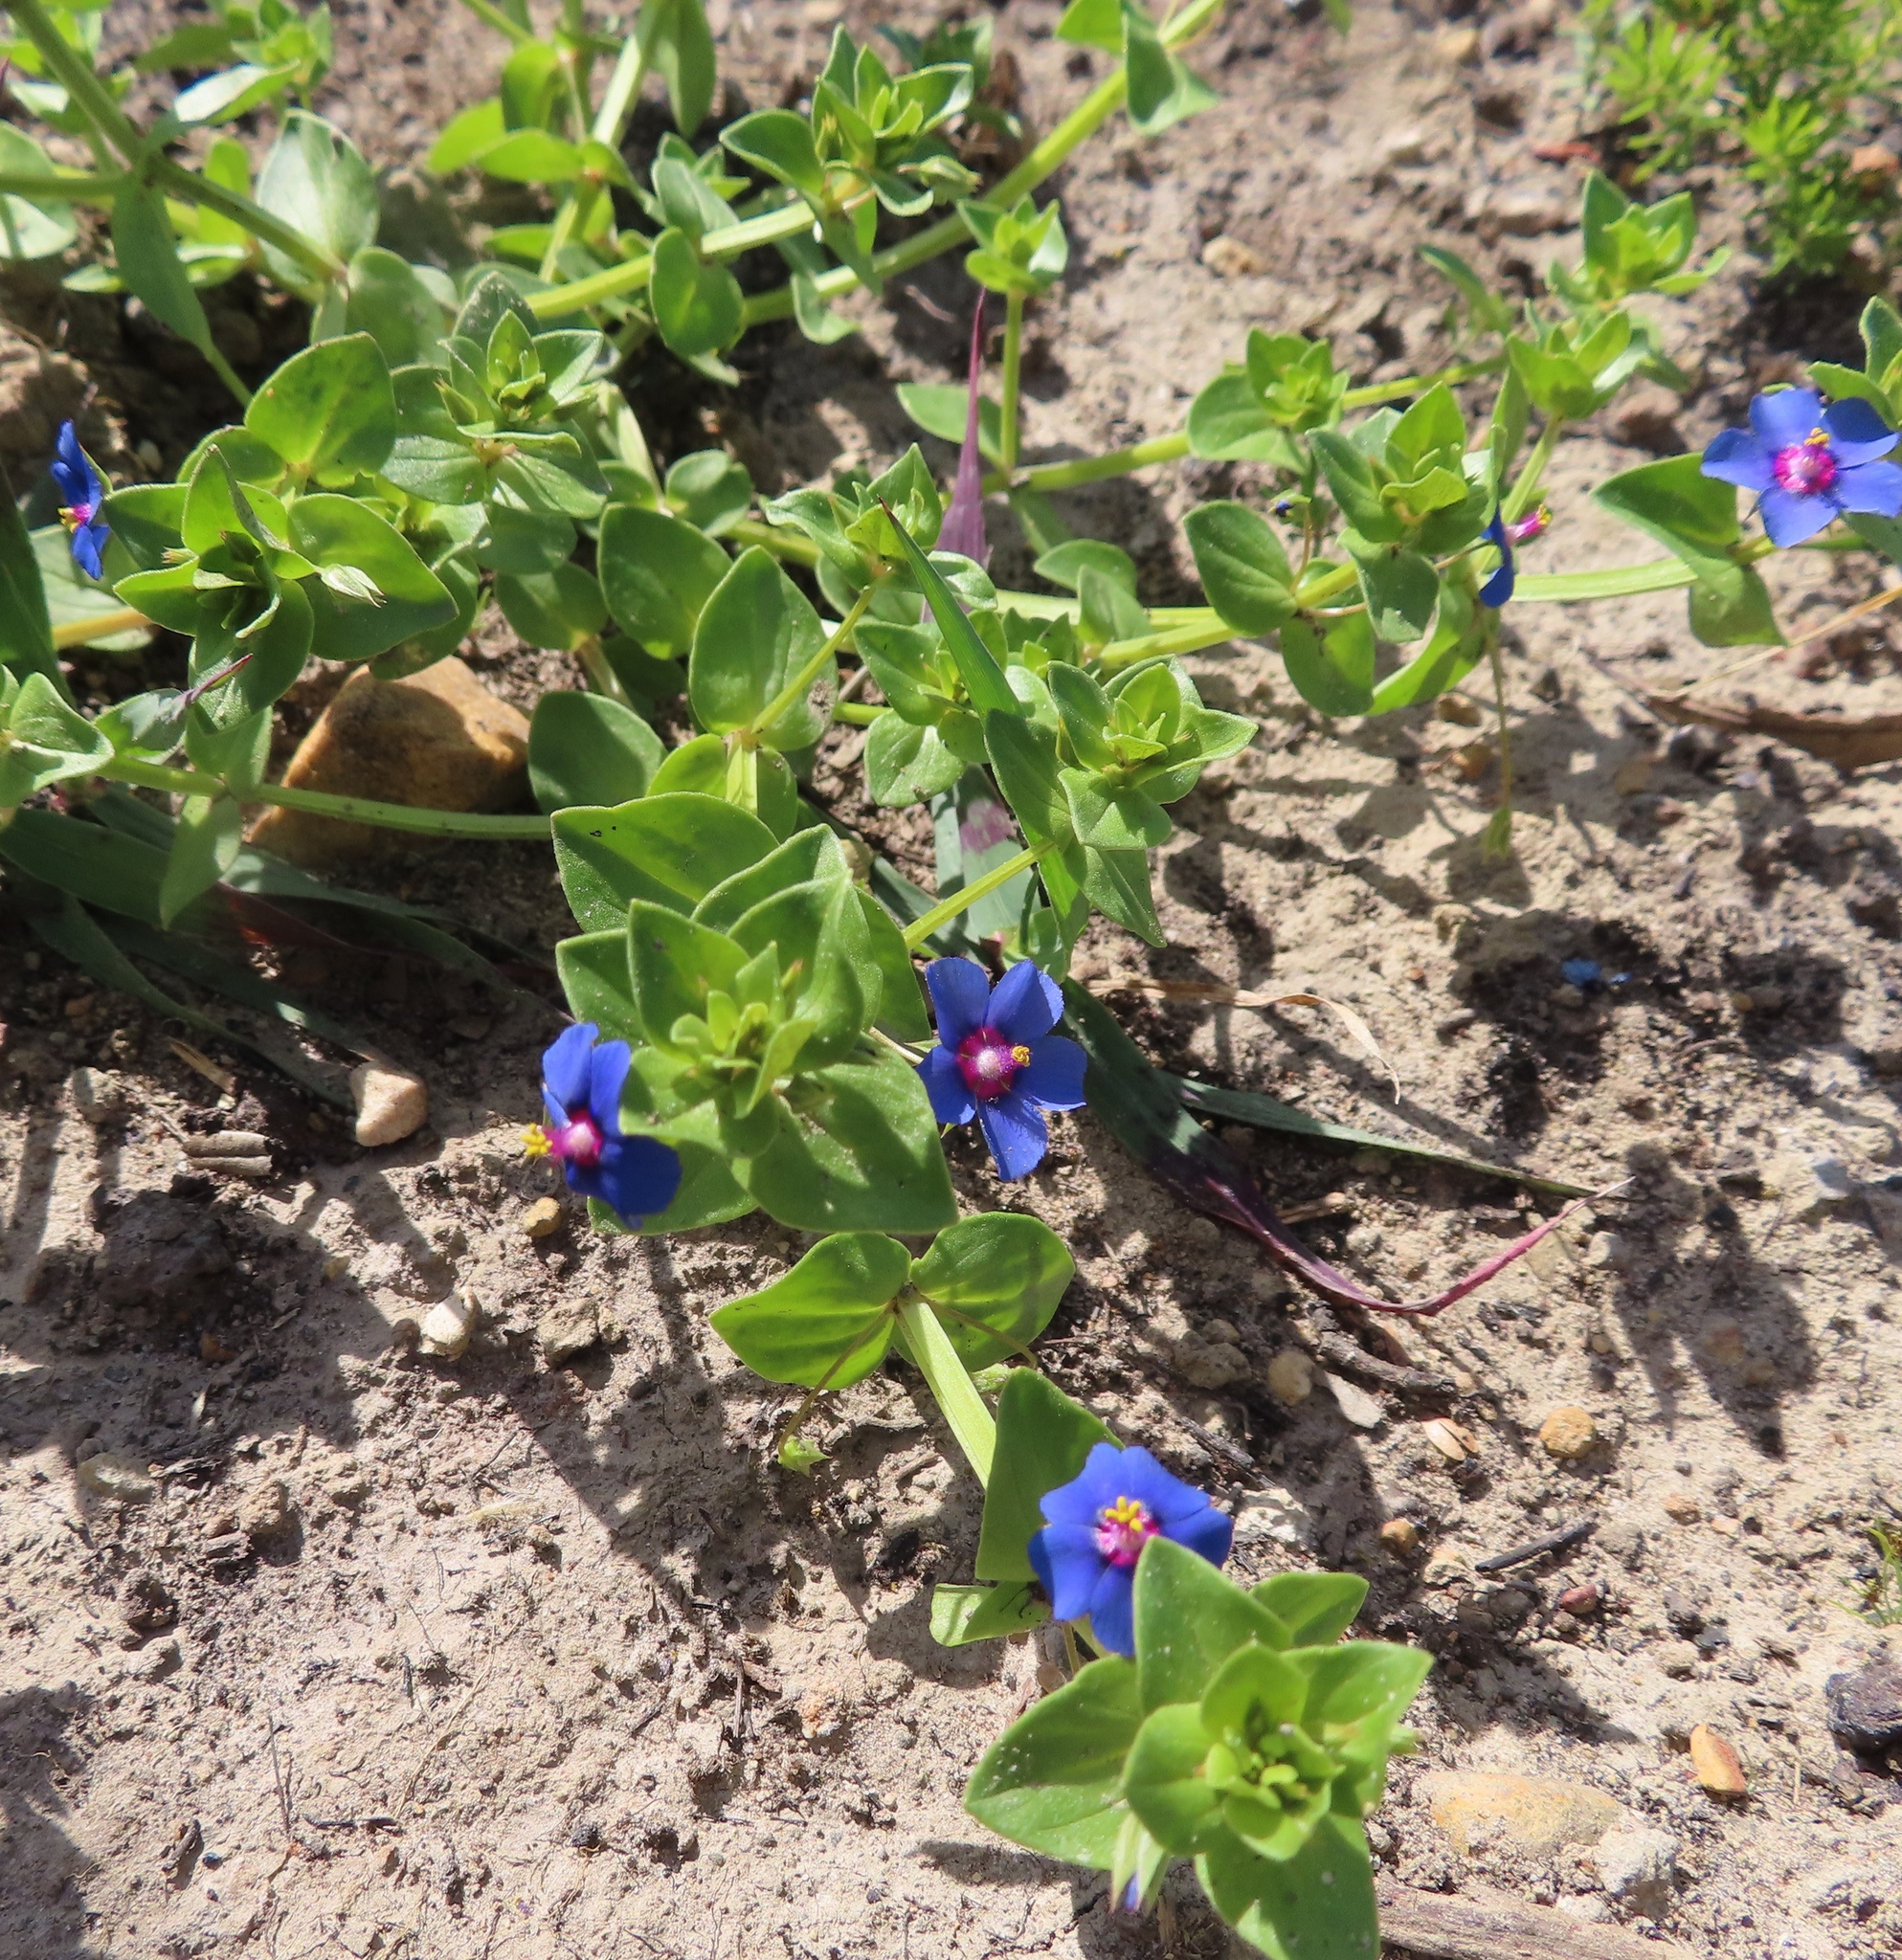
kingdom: Plantae
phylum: Tracheophyta
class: Magnoliopsida
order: Ericales
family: Primulaceae
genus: Lysimachia
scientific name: Lysimachia foemina
